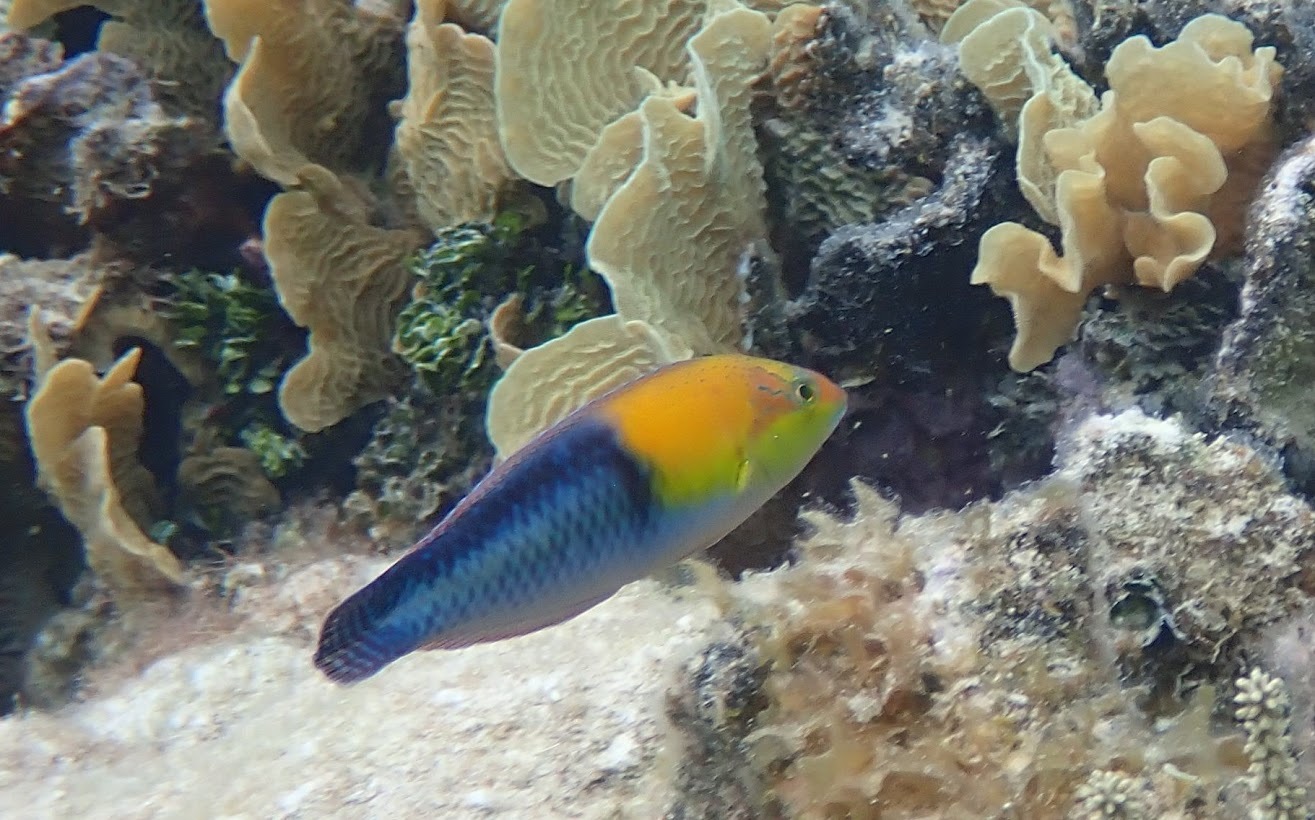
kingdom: Animalia
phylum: Chordata
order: Perciformes
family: Labridae
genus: Halichoeres
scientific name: Halichoeres garnoti
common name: Yellowhead wrasse
